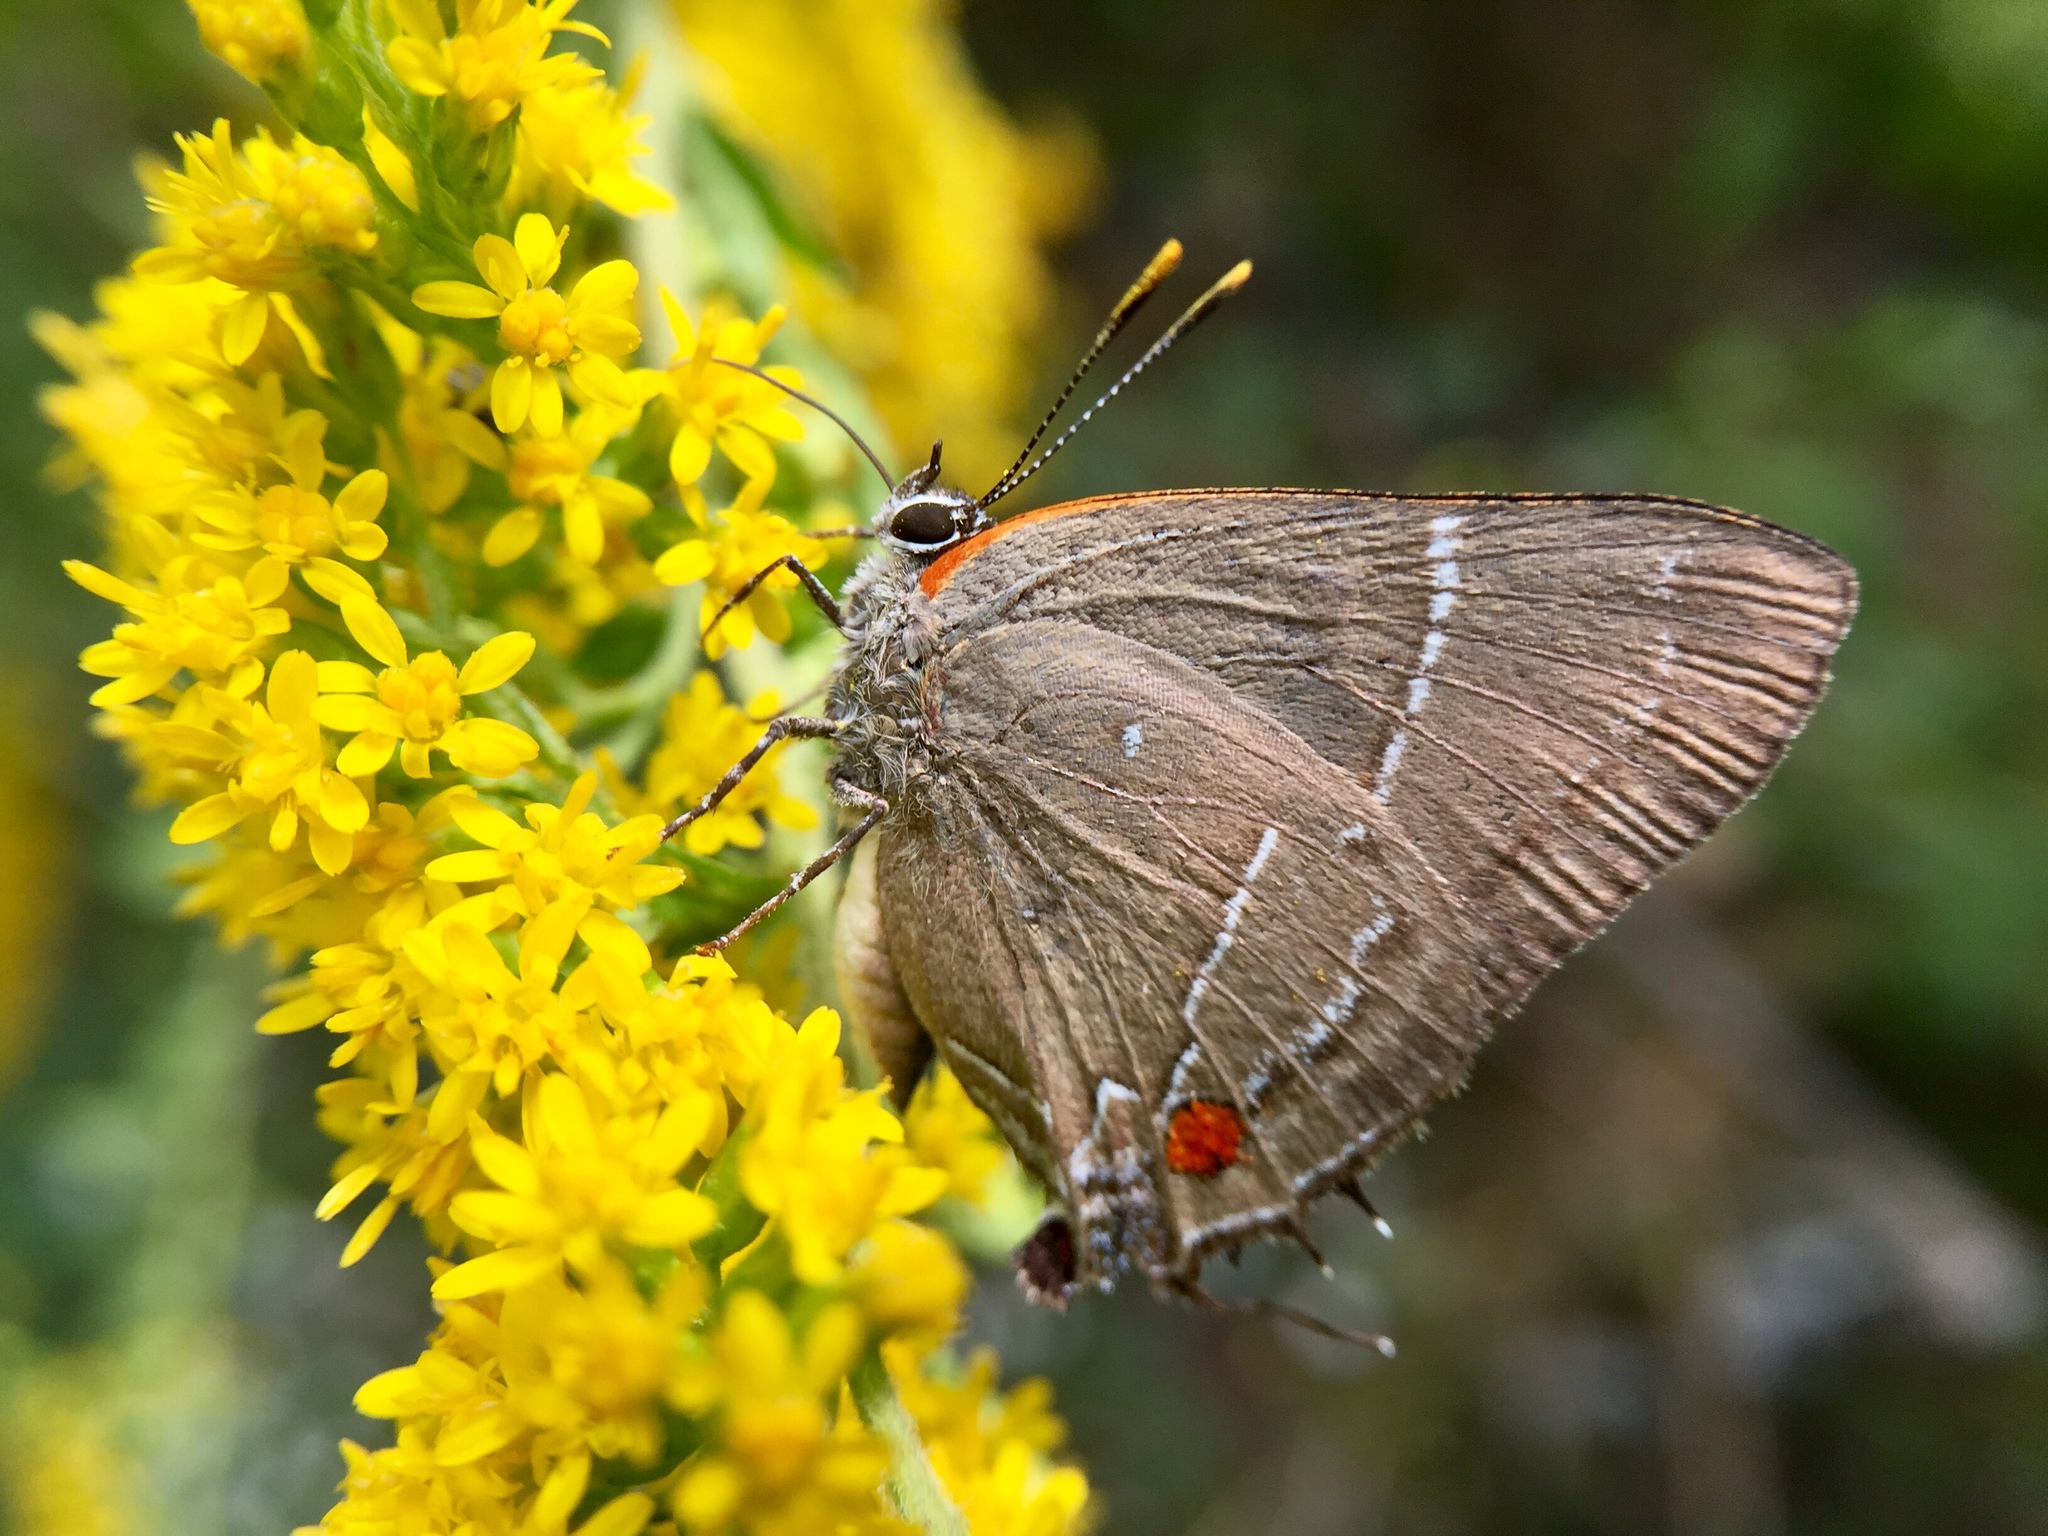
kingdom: Animalia
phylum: Arthropoda
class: Insecta
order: Lepidoptera
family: Lycaenidae
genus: Parrhasius
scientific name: Parrhasius m-album
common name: White m hairstreak
